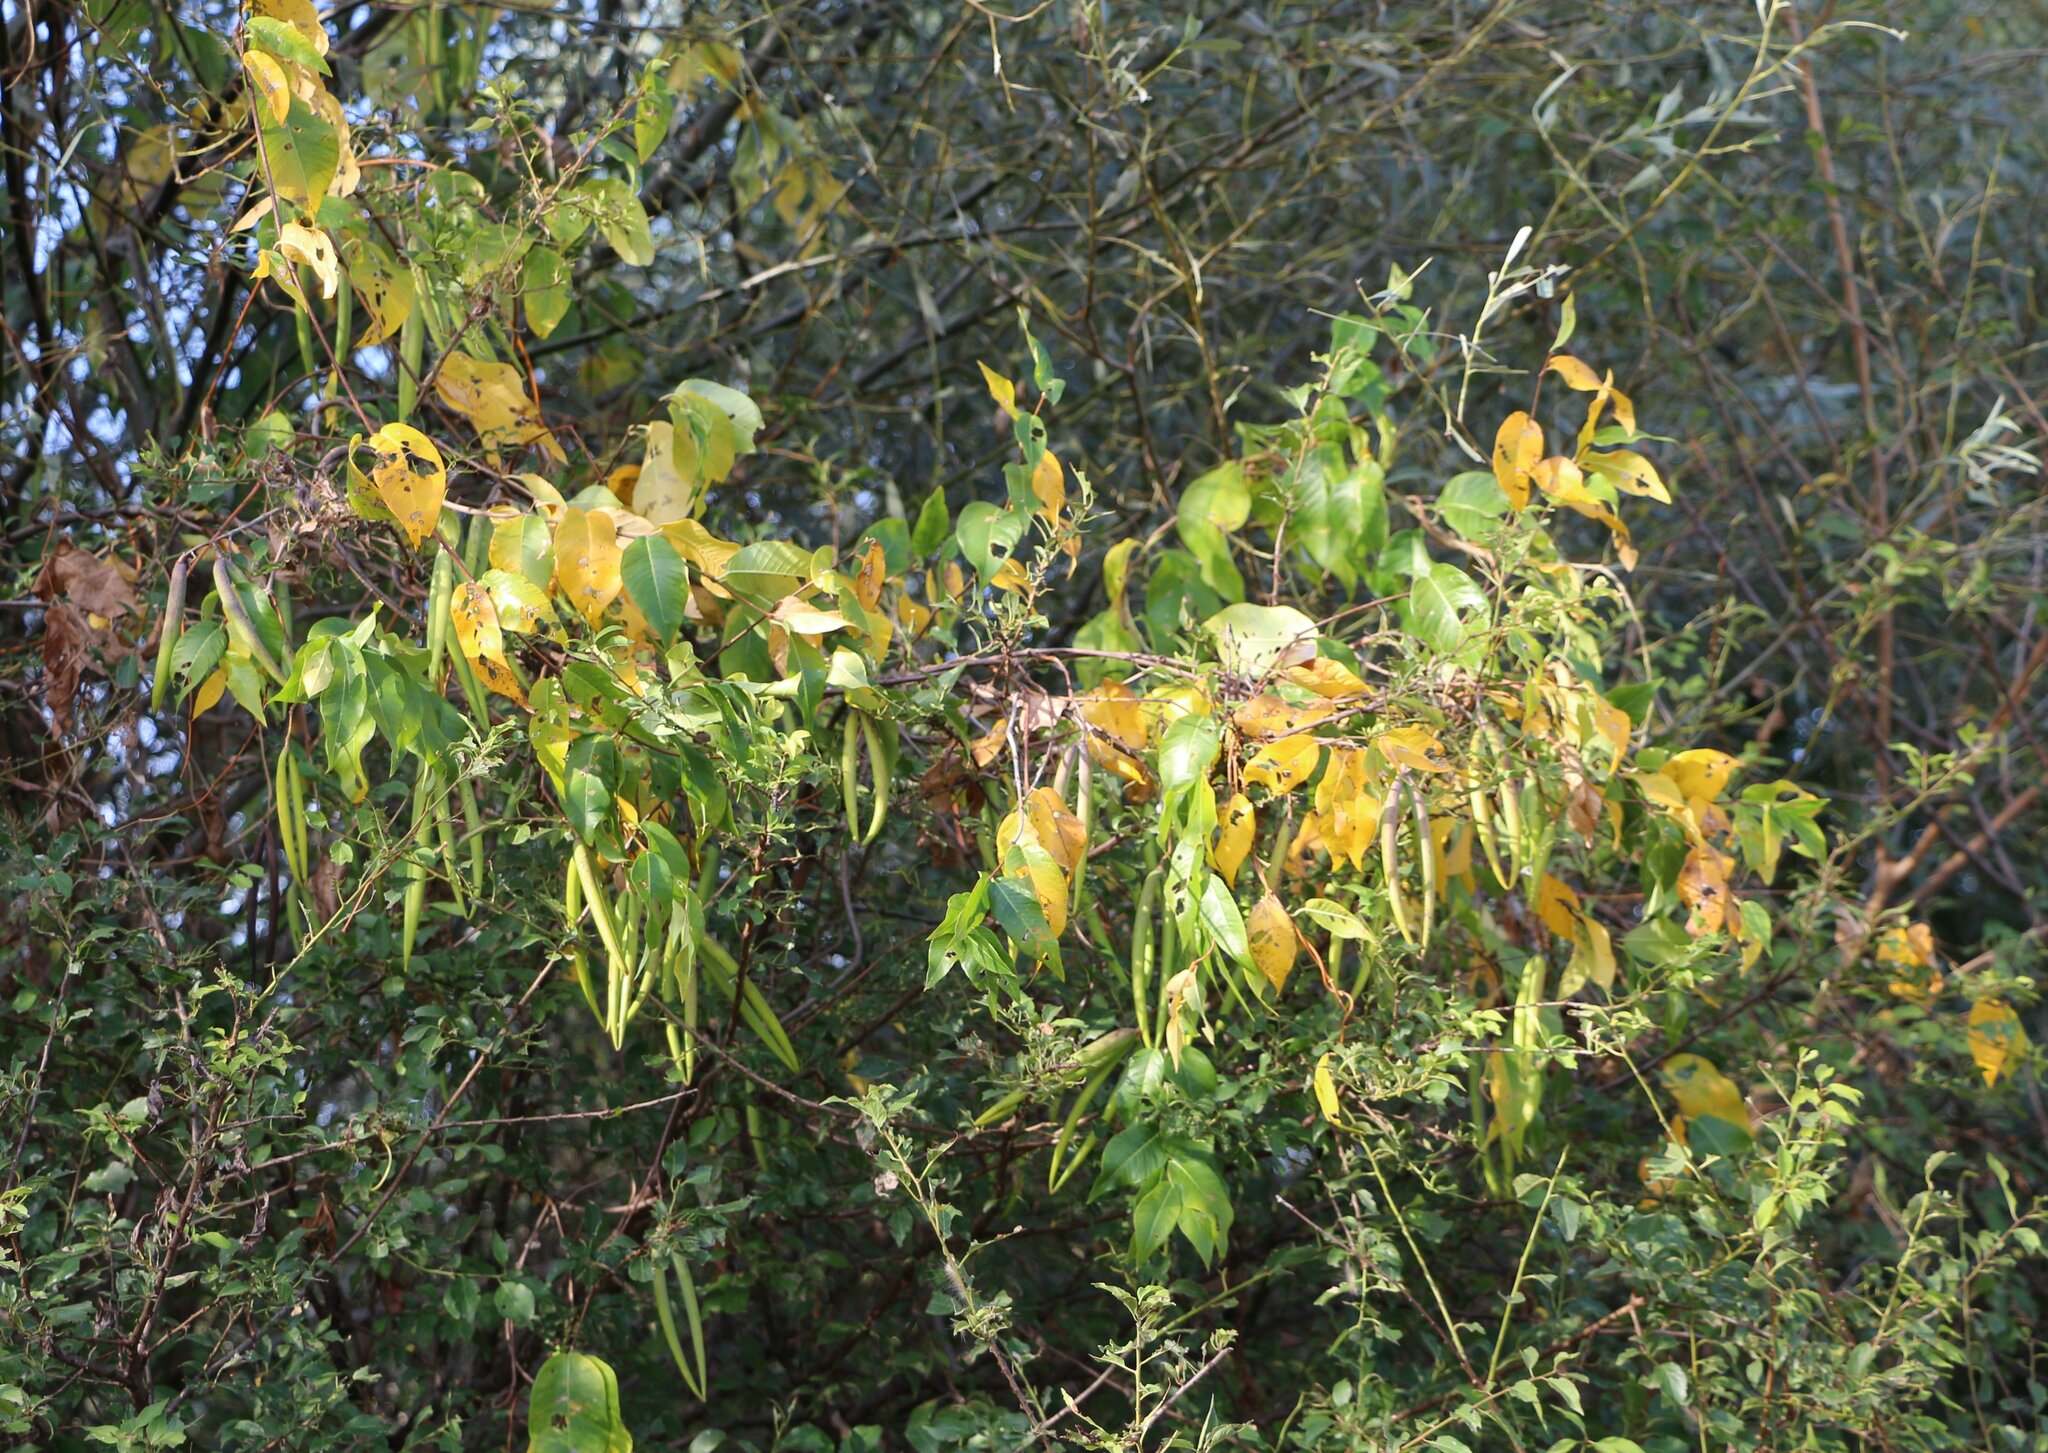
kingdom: Plantae
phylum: Tracheophyta
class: Magnoliopsida
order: Gentianales
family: Apocynaceae
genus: Periploca
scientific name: Periploca graeca
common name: Silkvine
